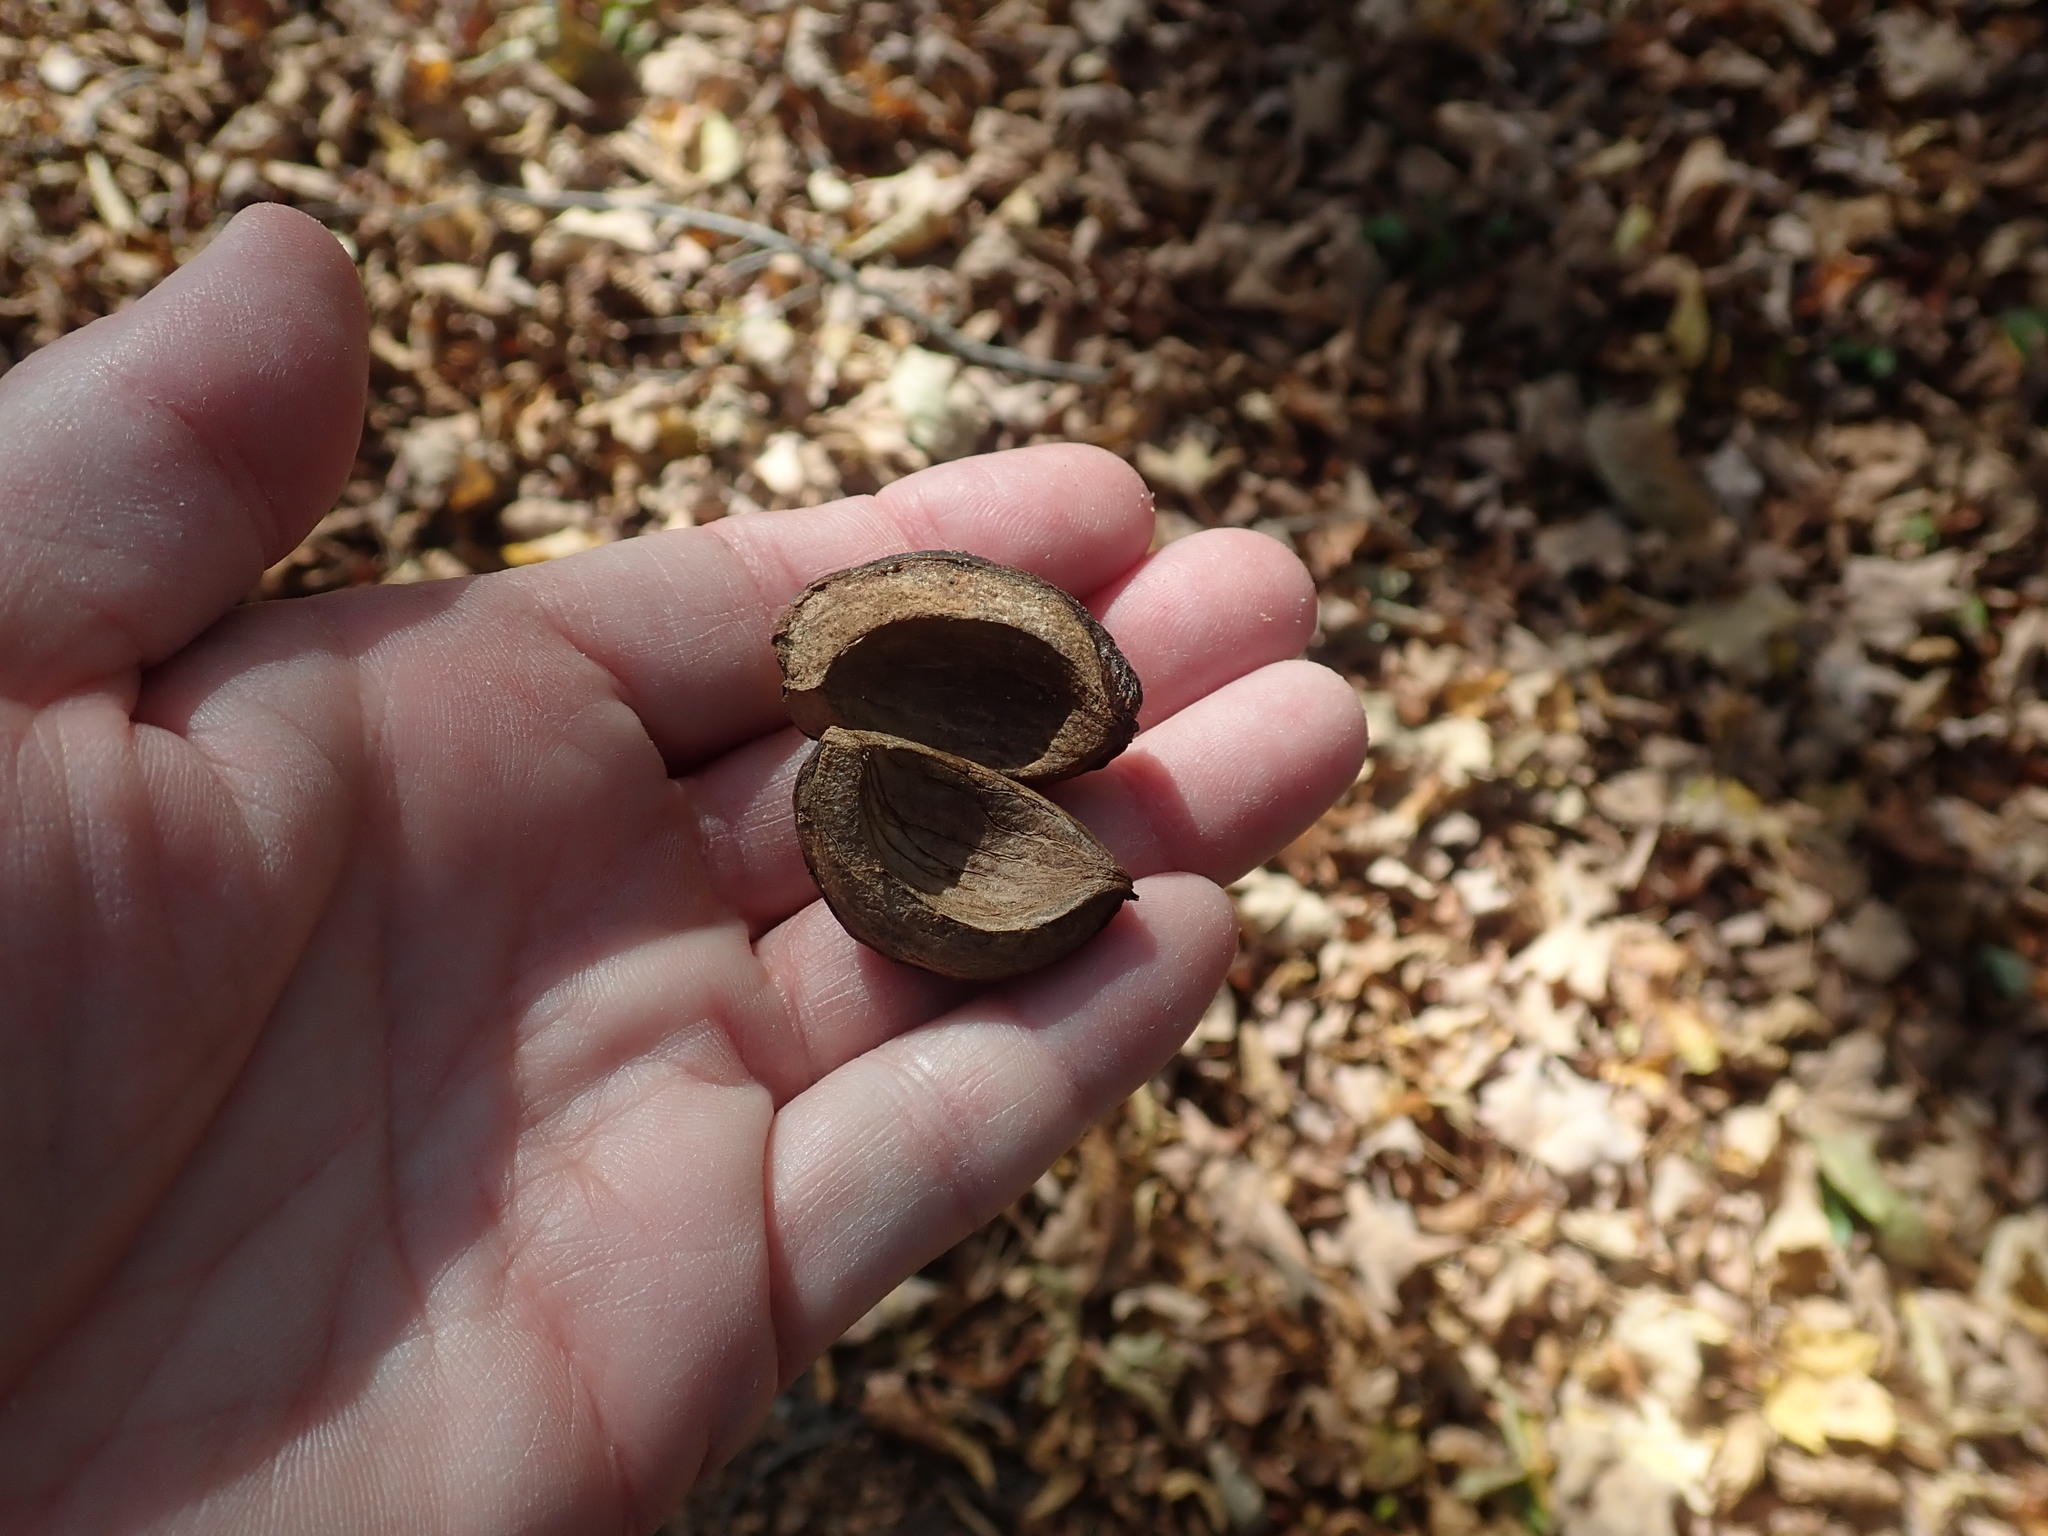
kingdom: Plantae
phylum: Tracheophyta
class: Magnoliopsida
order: Fagales
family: Juglandaceae
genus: Carya
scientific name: Carya ovata
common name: Shagbark hickory
